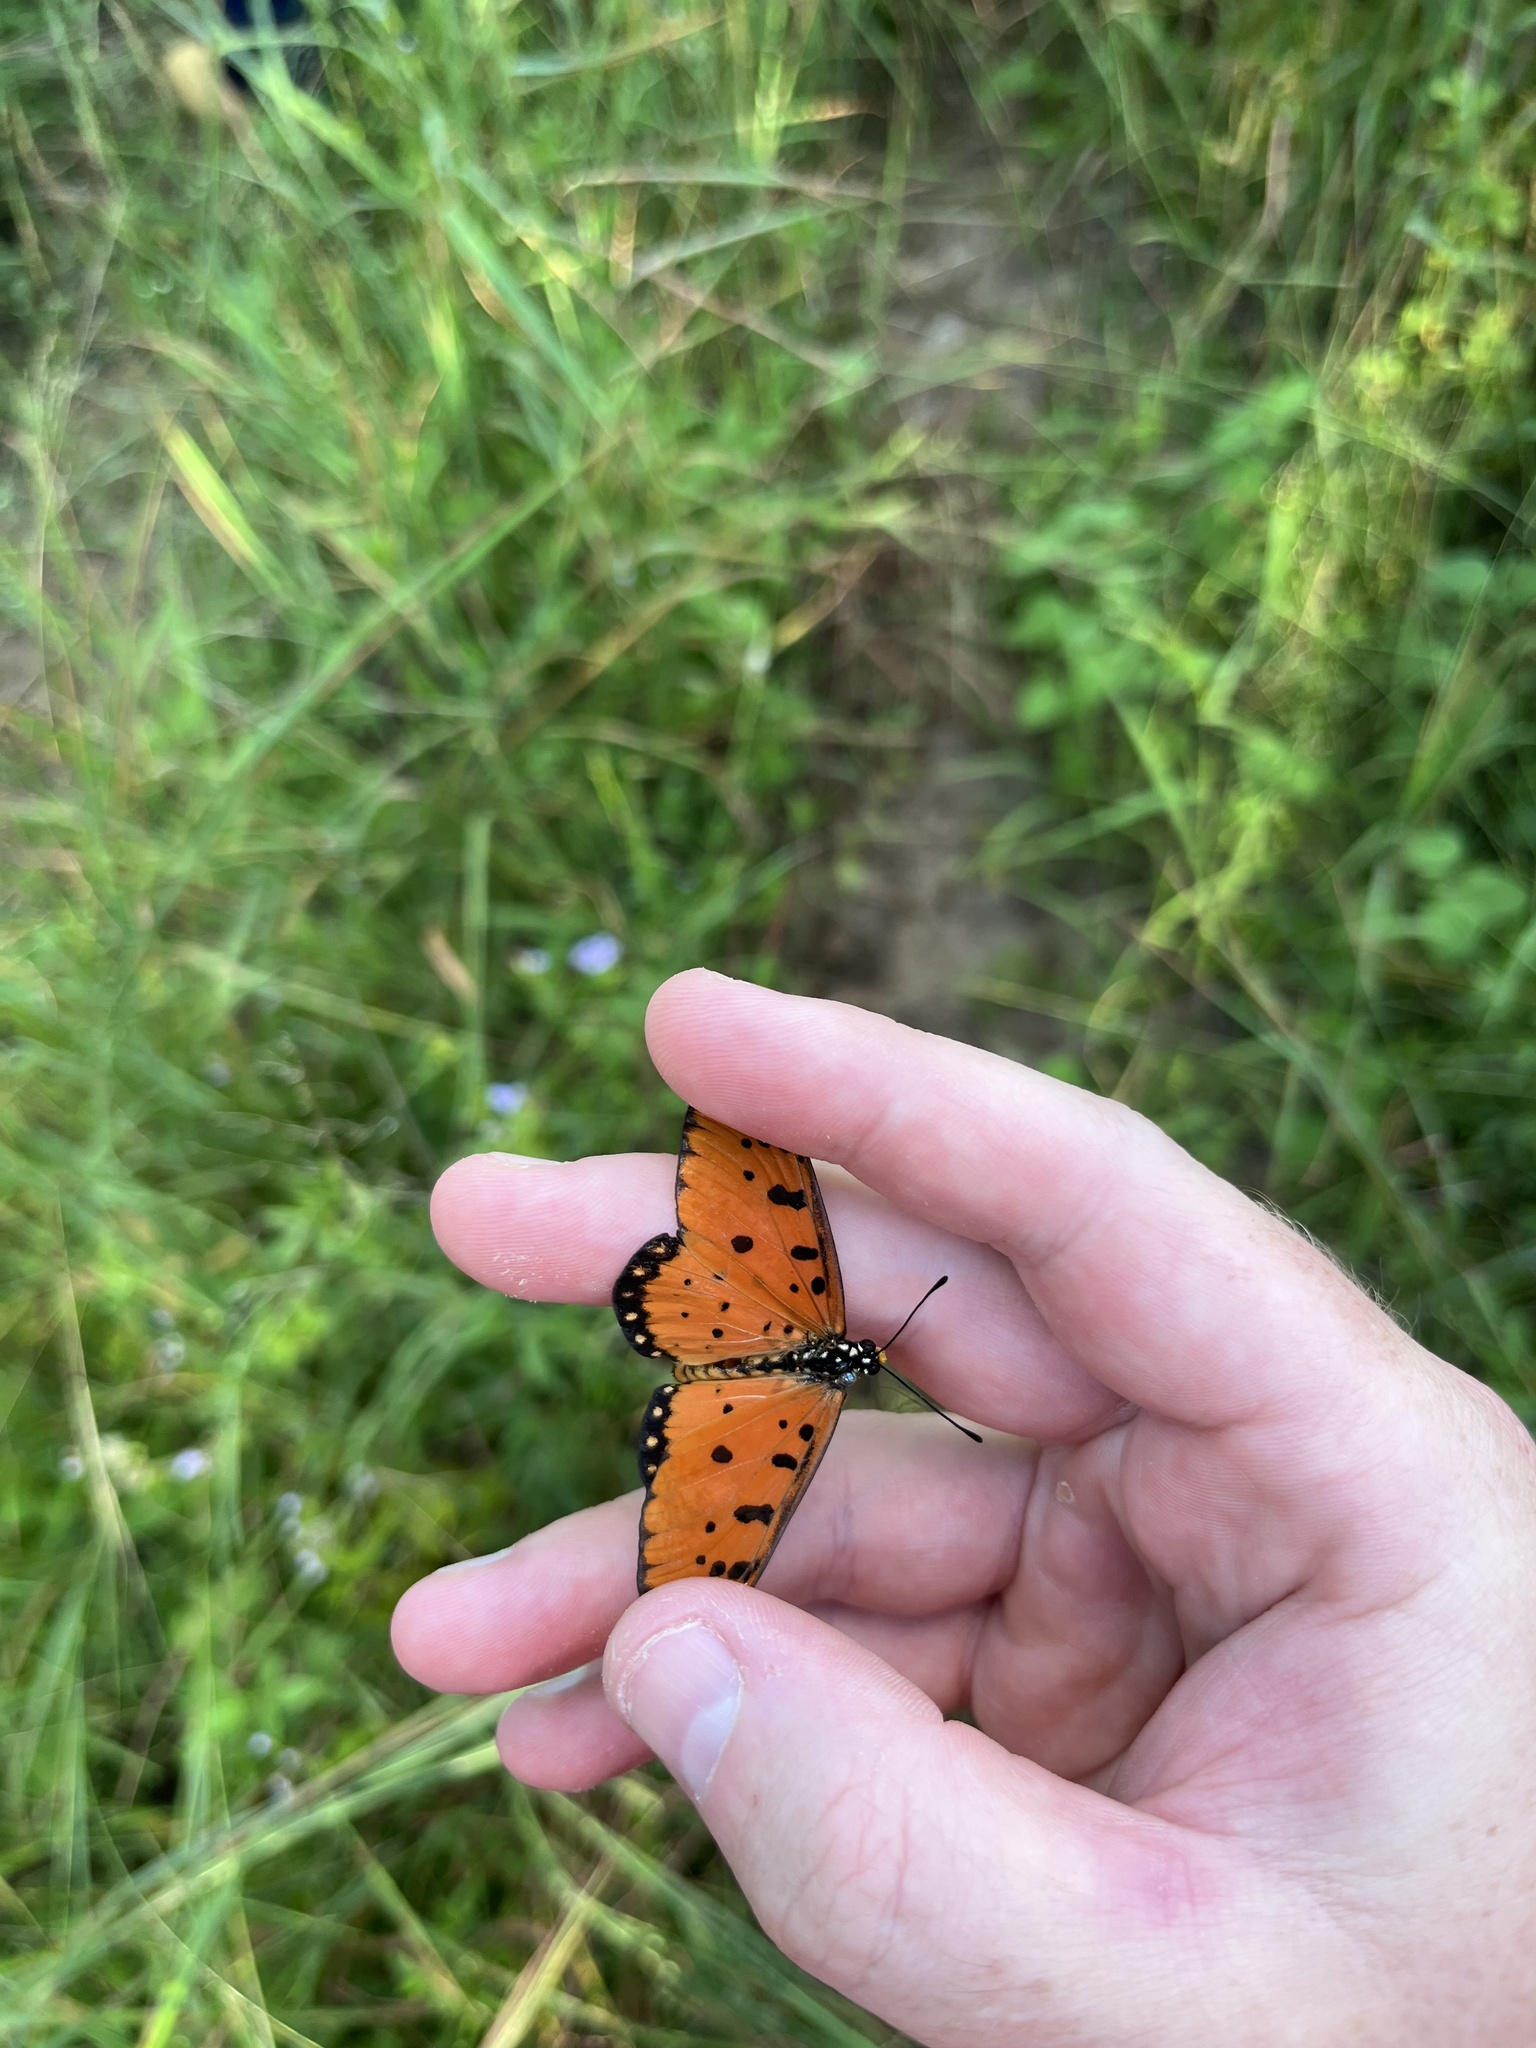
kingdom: Animalia
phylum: Arthropoda
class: Insecta
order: Lepidoptera
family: Nymphalidae
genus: Acraea
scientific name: Acraea terpsicore
